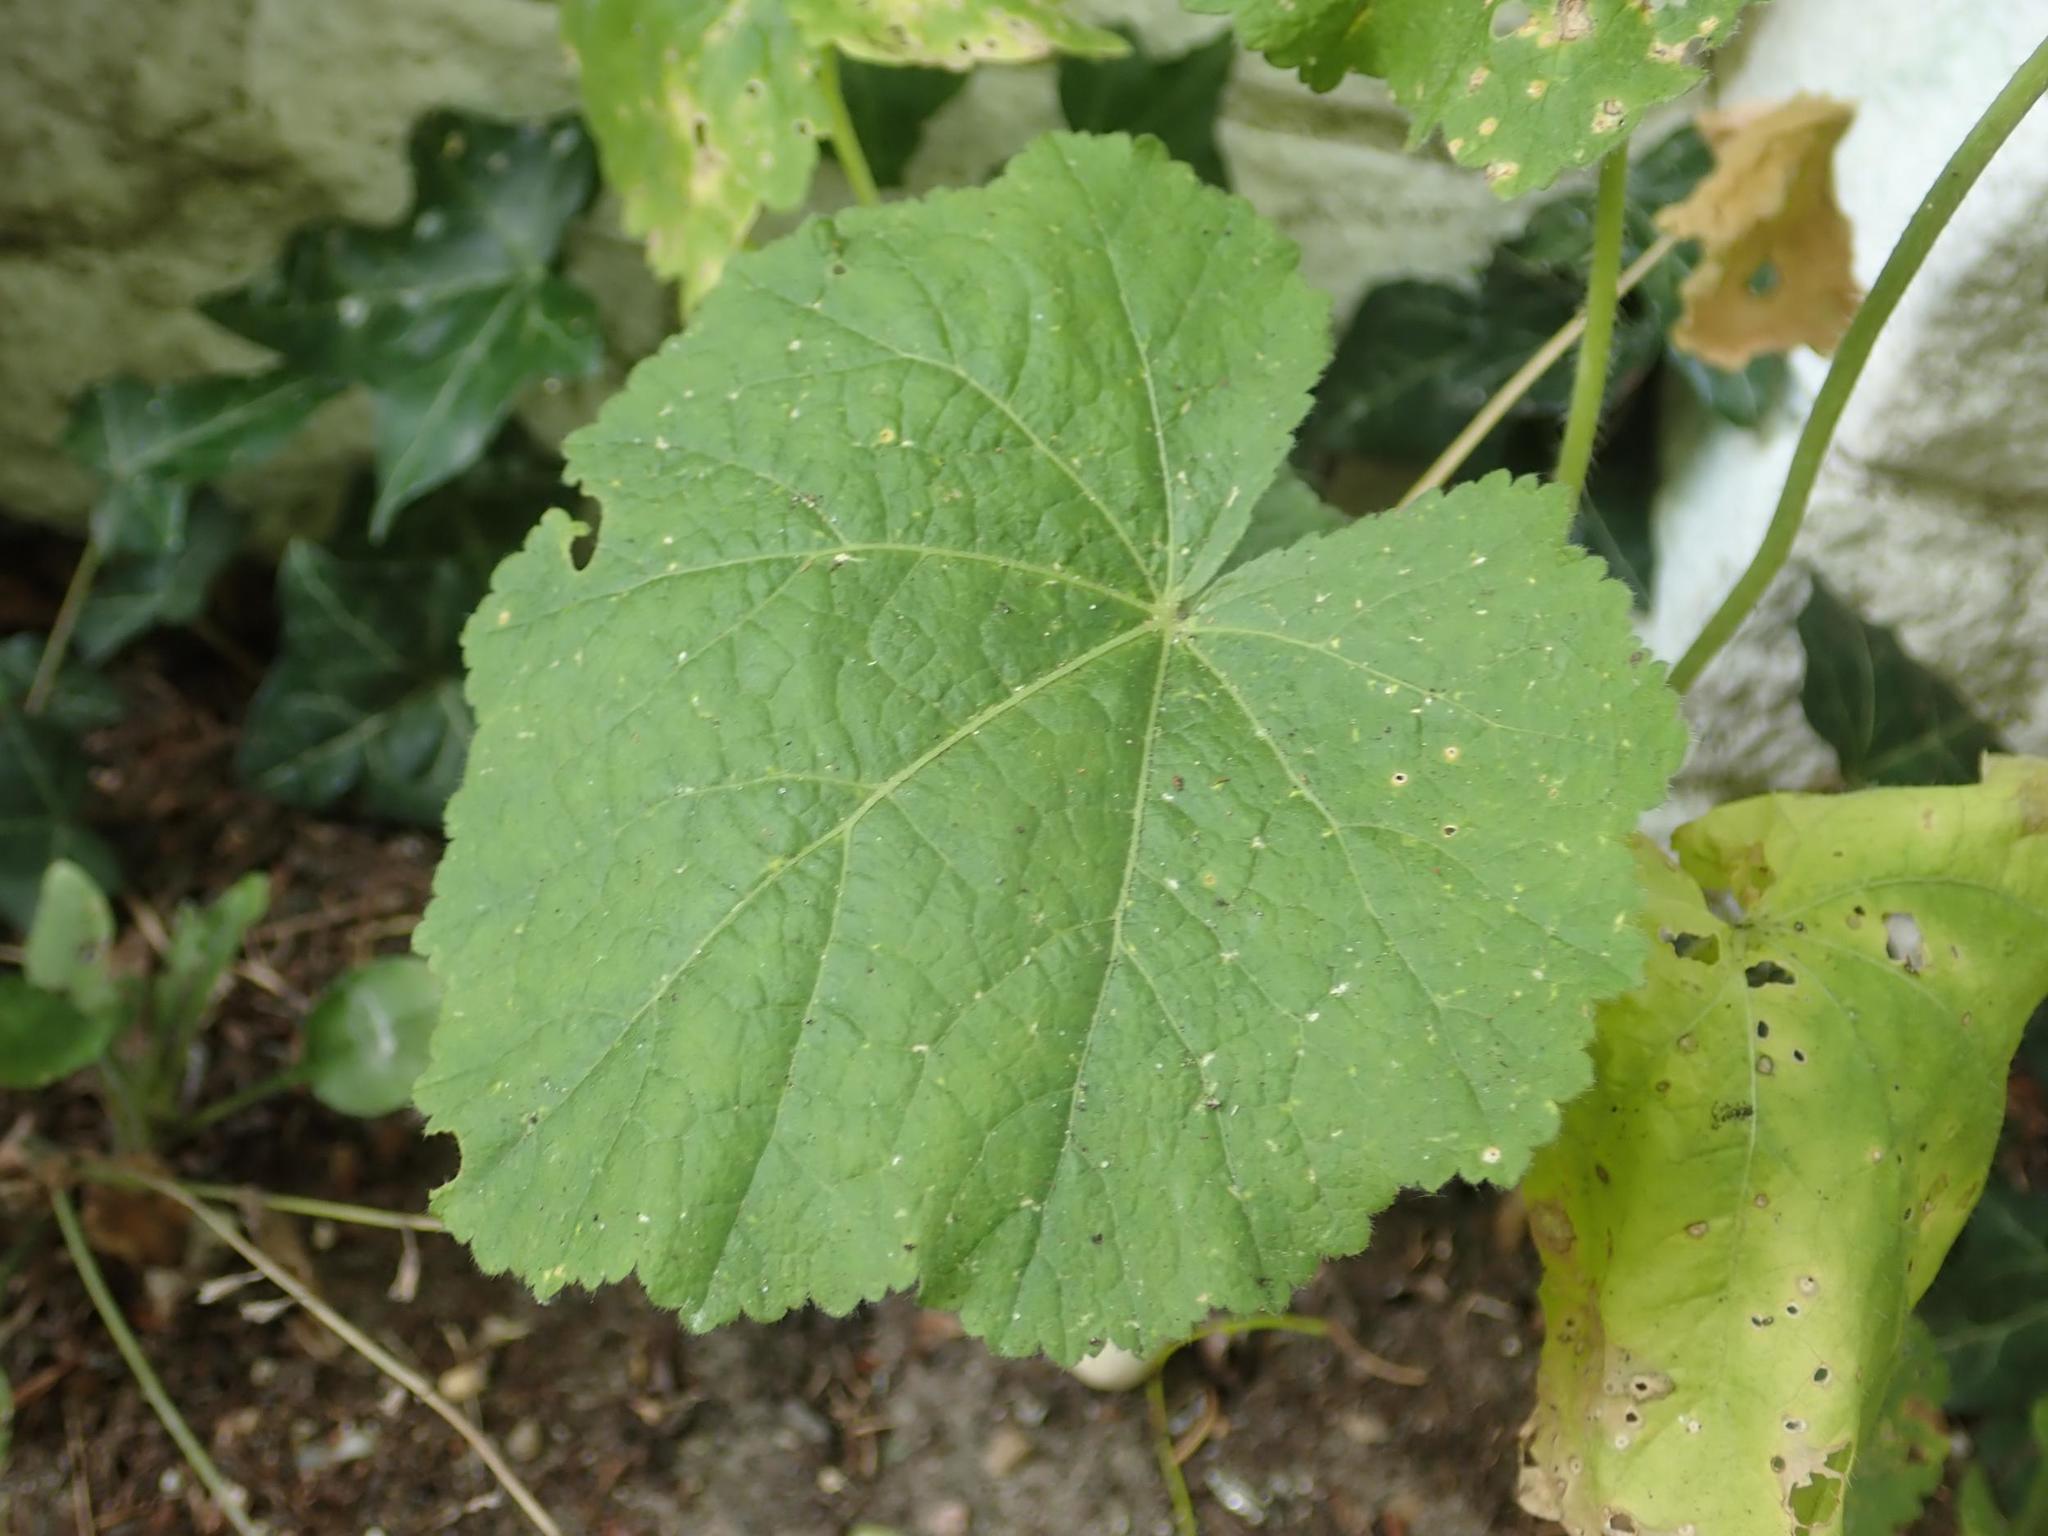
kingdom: Plantae
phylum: Tracheophyta
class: Magnoliopsida
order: Malvales
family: Malvaceae
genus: Alcea
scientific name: Alcea rosea
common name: Hollyhock
